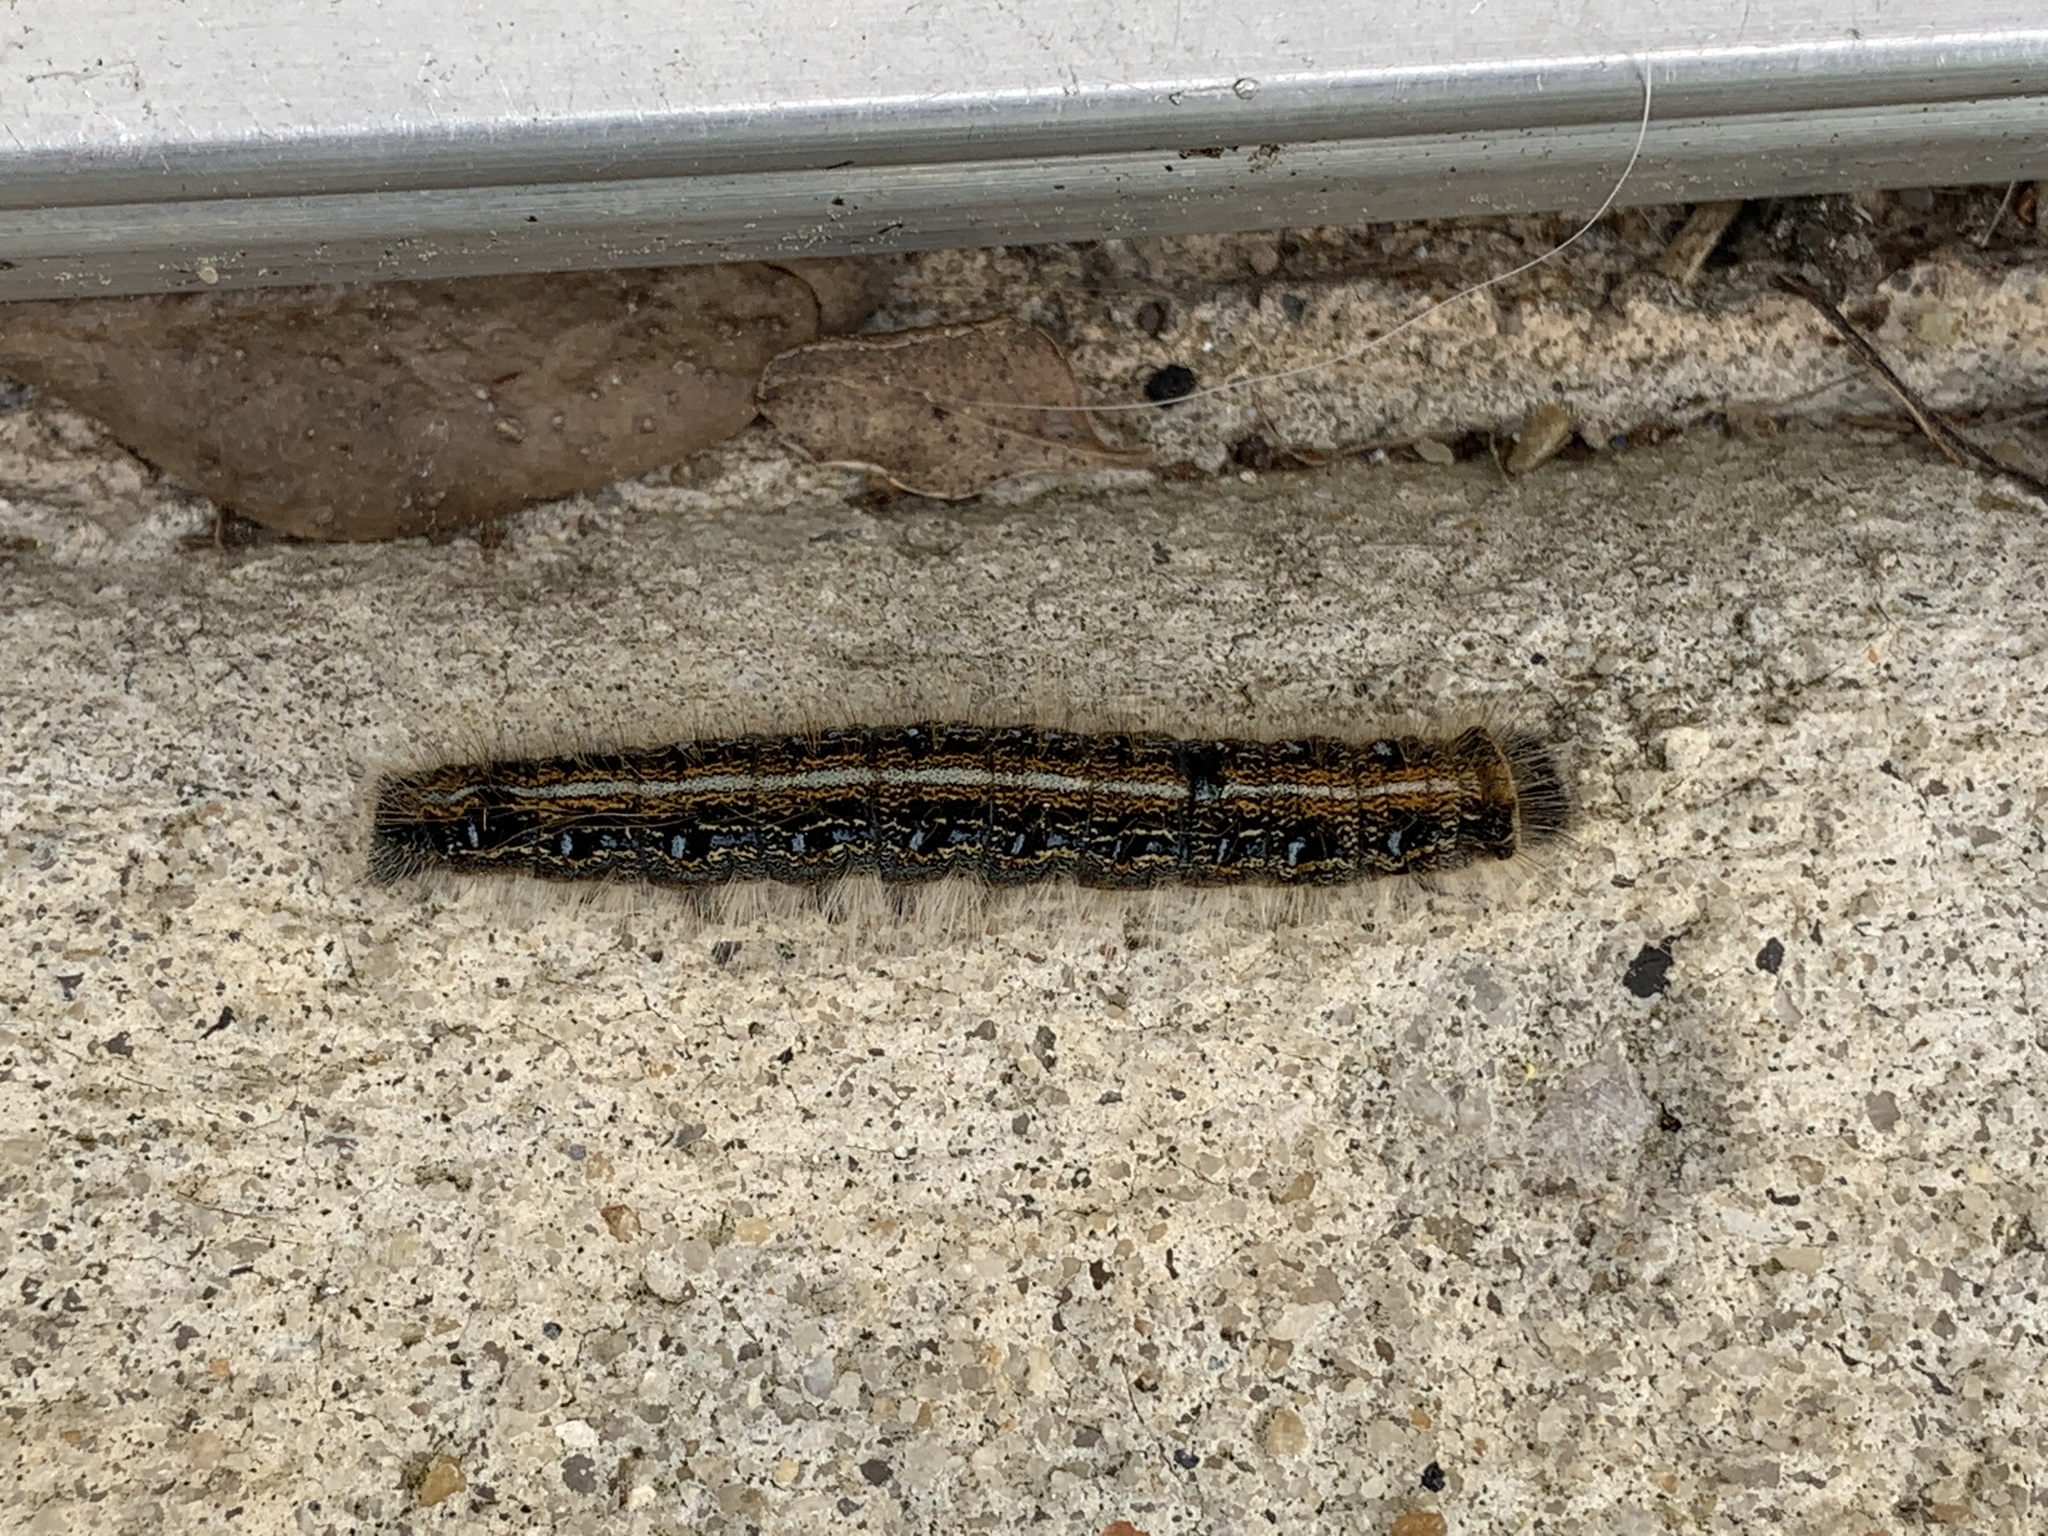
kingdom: Animalia
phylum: Arthropoda
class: Insecta
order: Lepidoptera
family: Lasiocampidae
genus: Malacosoma
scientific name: Malacosoma americana
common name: Eastern tent caterpillar moth
